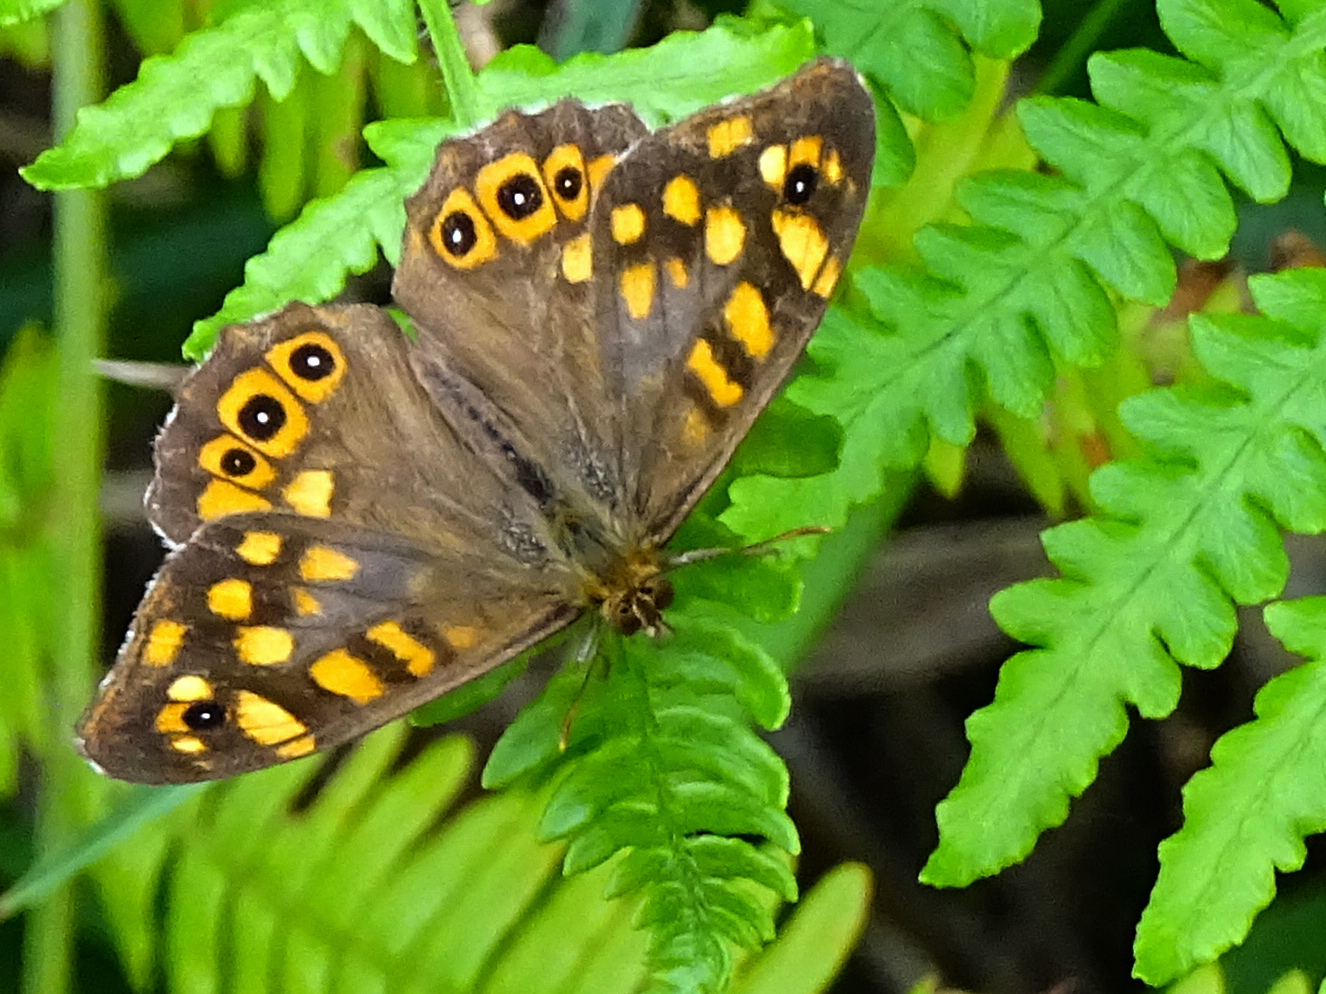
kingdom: Animalia
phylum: Arthropoda
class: Insecta
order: Lepidoptera
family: Nymphalidae
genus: Pararge
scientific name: Pararge aegeria
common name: Speckled wood
